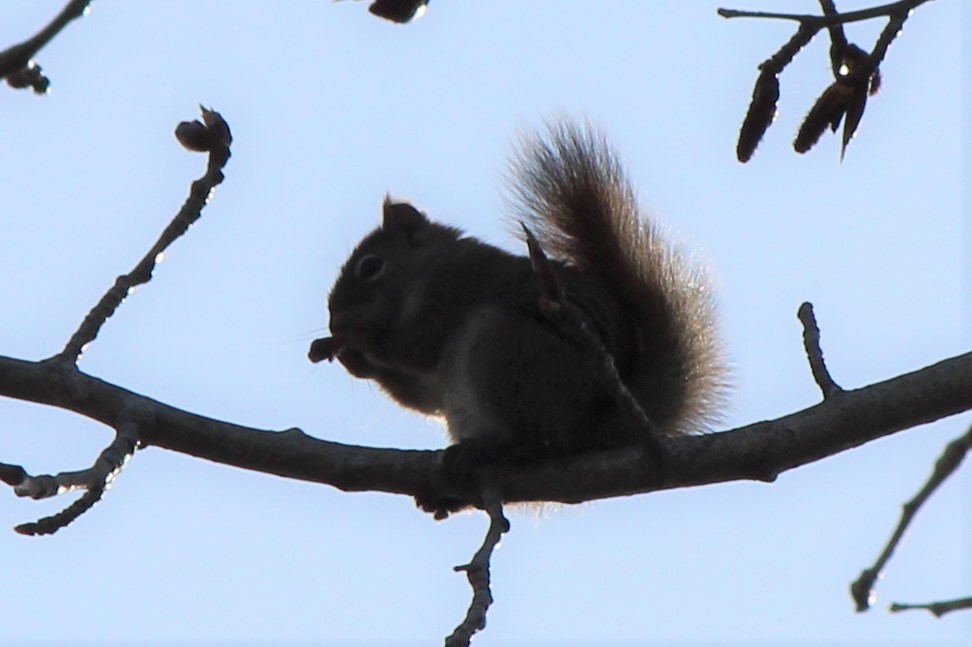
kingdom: Animalia
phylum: Chordata
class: Mammalia
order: Rodentia
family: Sciuridae
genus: Tamiasciurus
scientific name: Tamiasciurus hudsonicus
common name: Red squirrel
